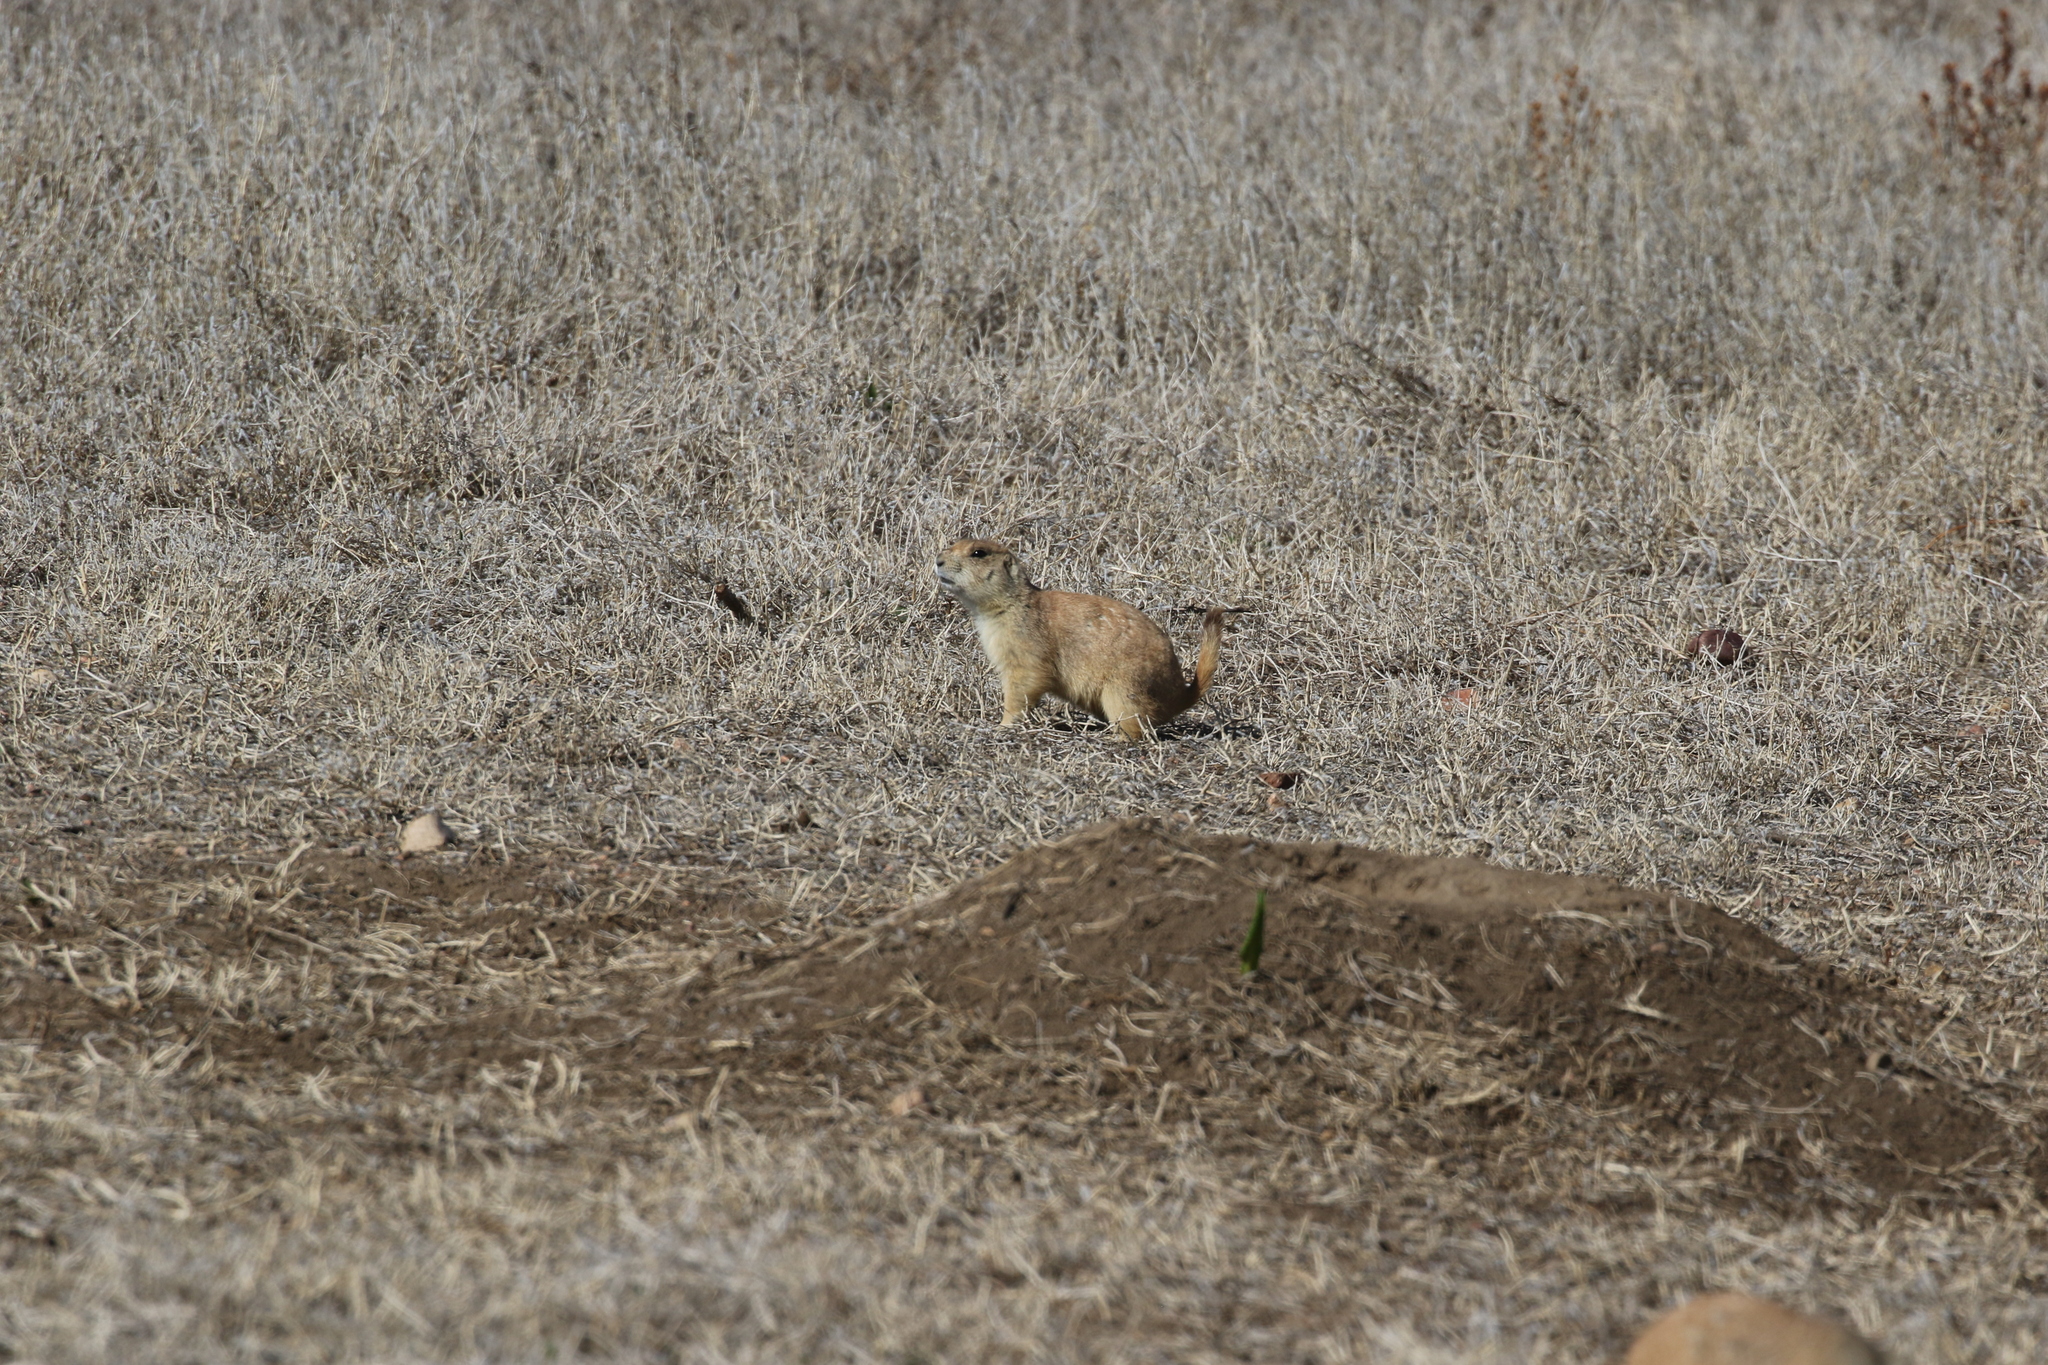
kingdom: Animalia
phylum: Chordata
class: Mammalia
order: Rodentia
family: Sciuridae
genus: Cynomys
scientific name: Cynomys ludovicianus
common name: Black-tailed prairie dog
